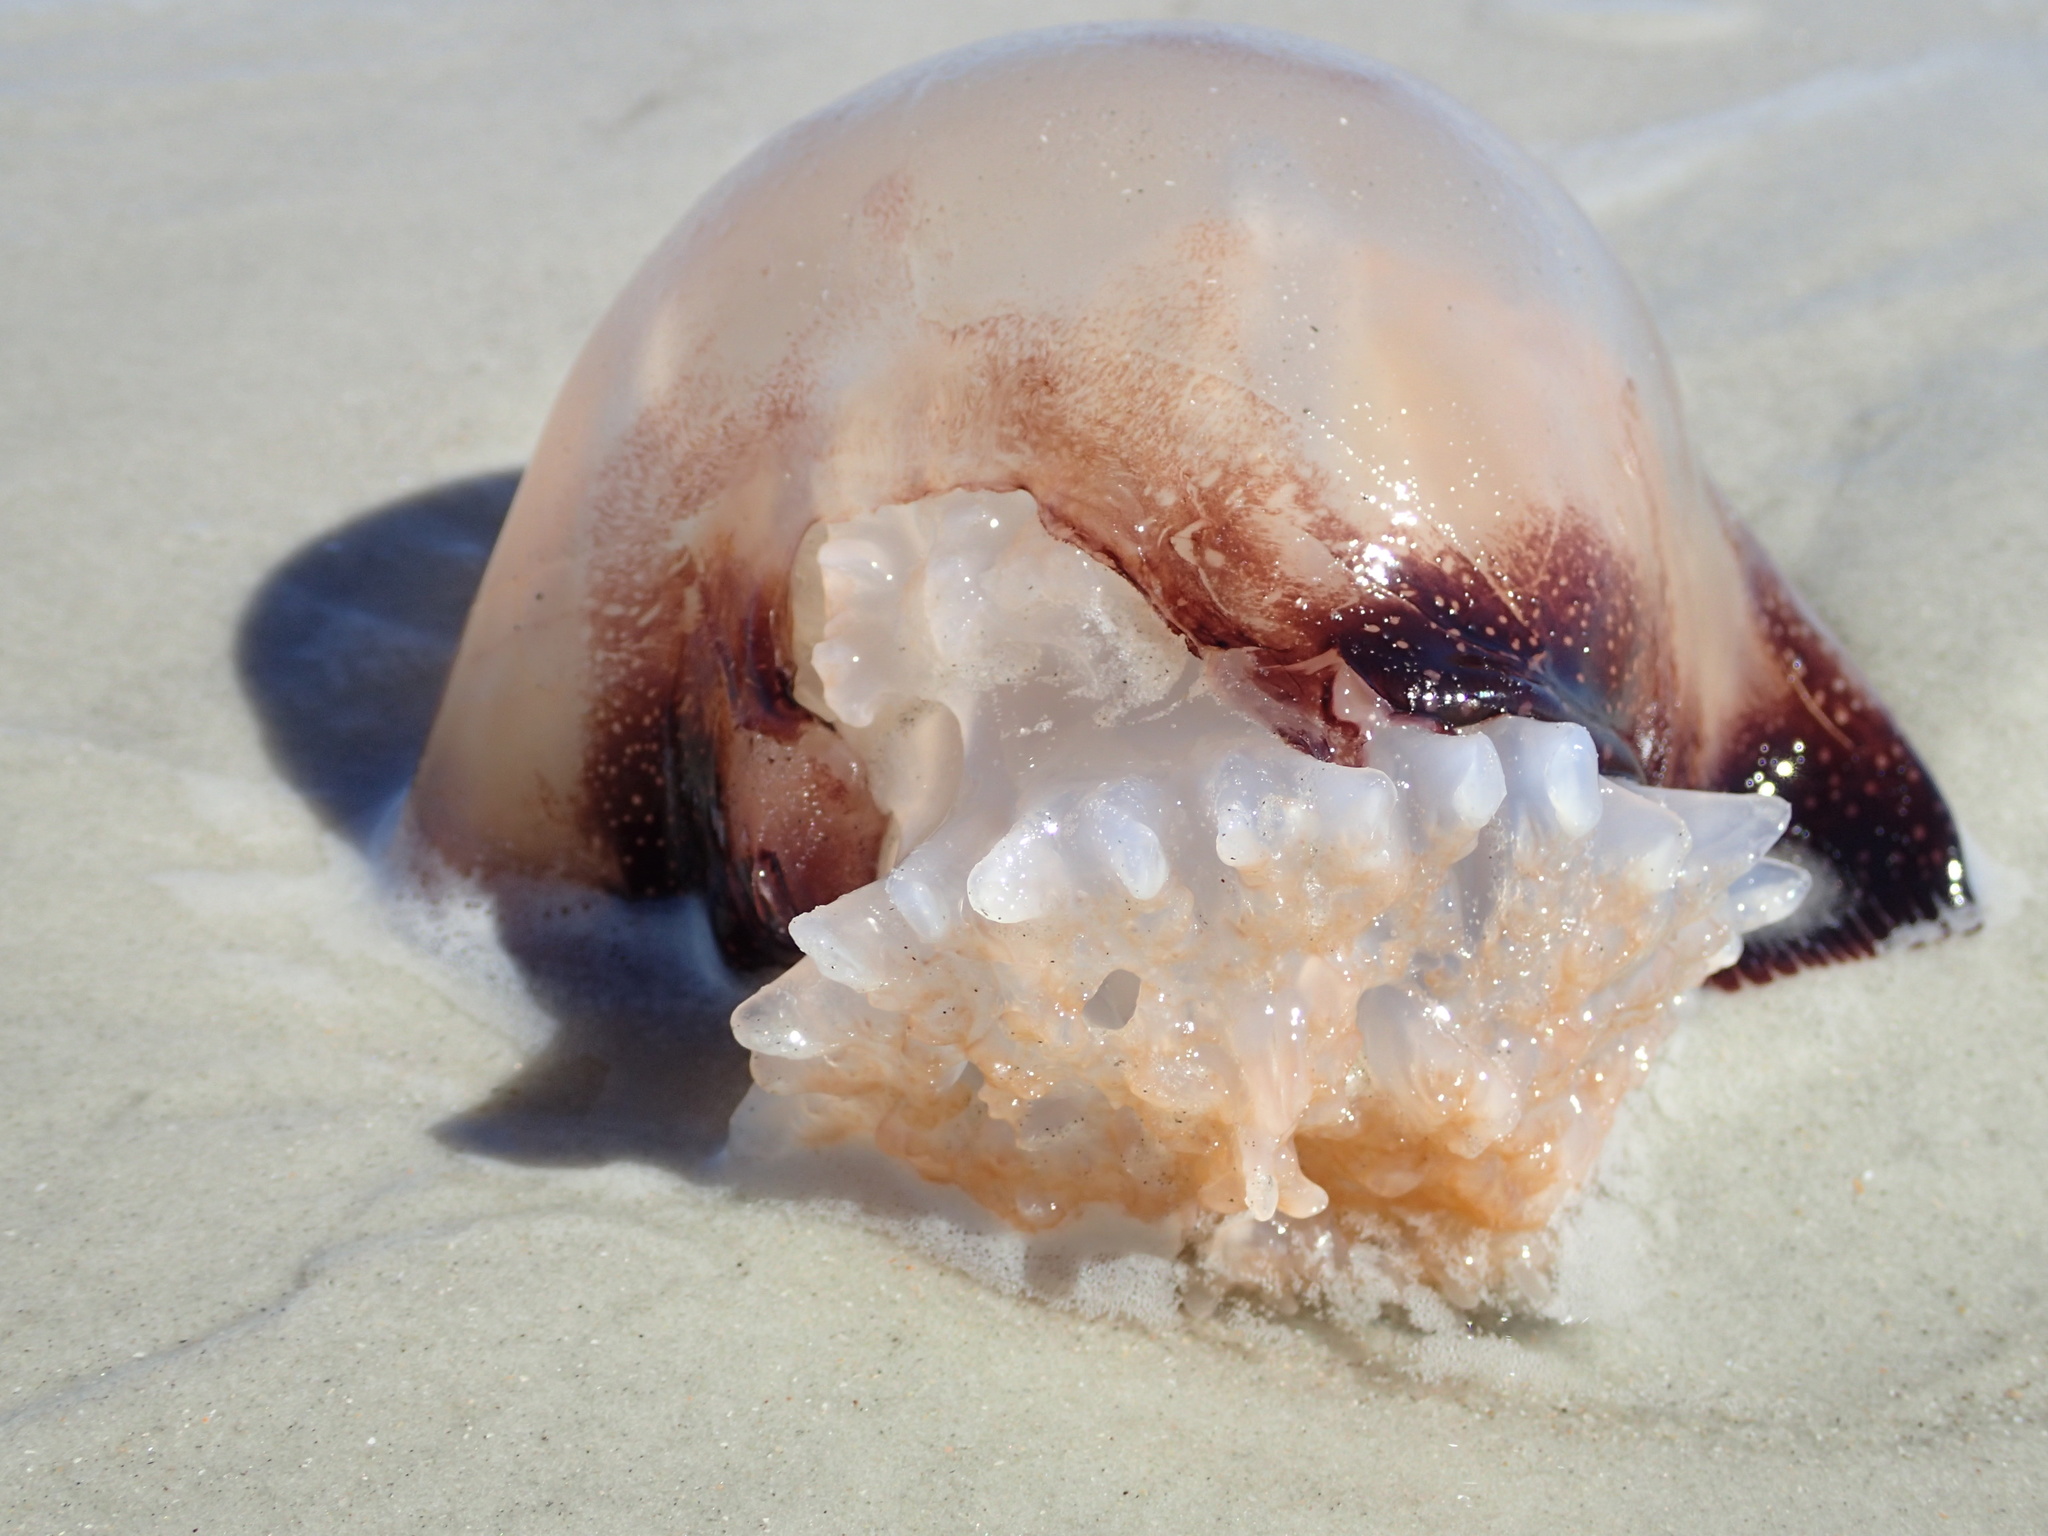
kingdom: Animalia
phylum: Cnidaria
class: Scyphozoa
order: Rhizostomeae
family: Stomolophidae
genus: Stomolophus
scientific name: Stomolophus meleagris
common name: Cabbagehead
